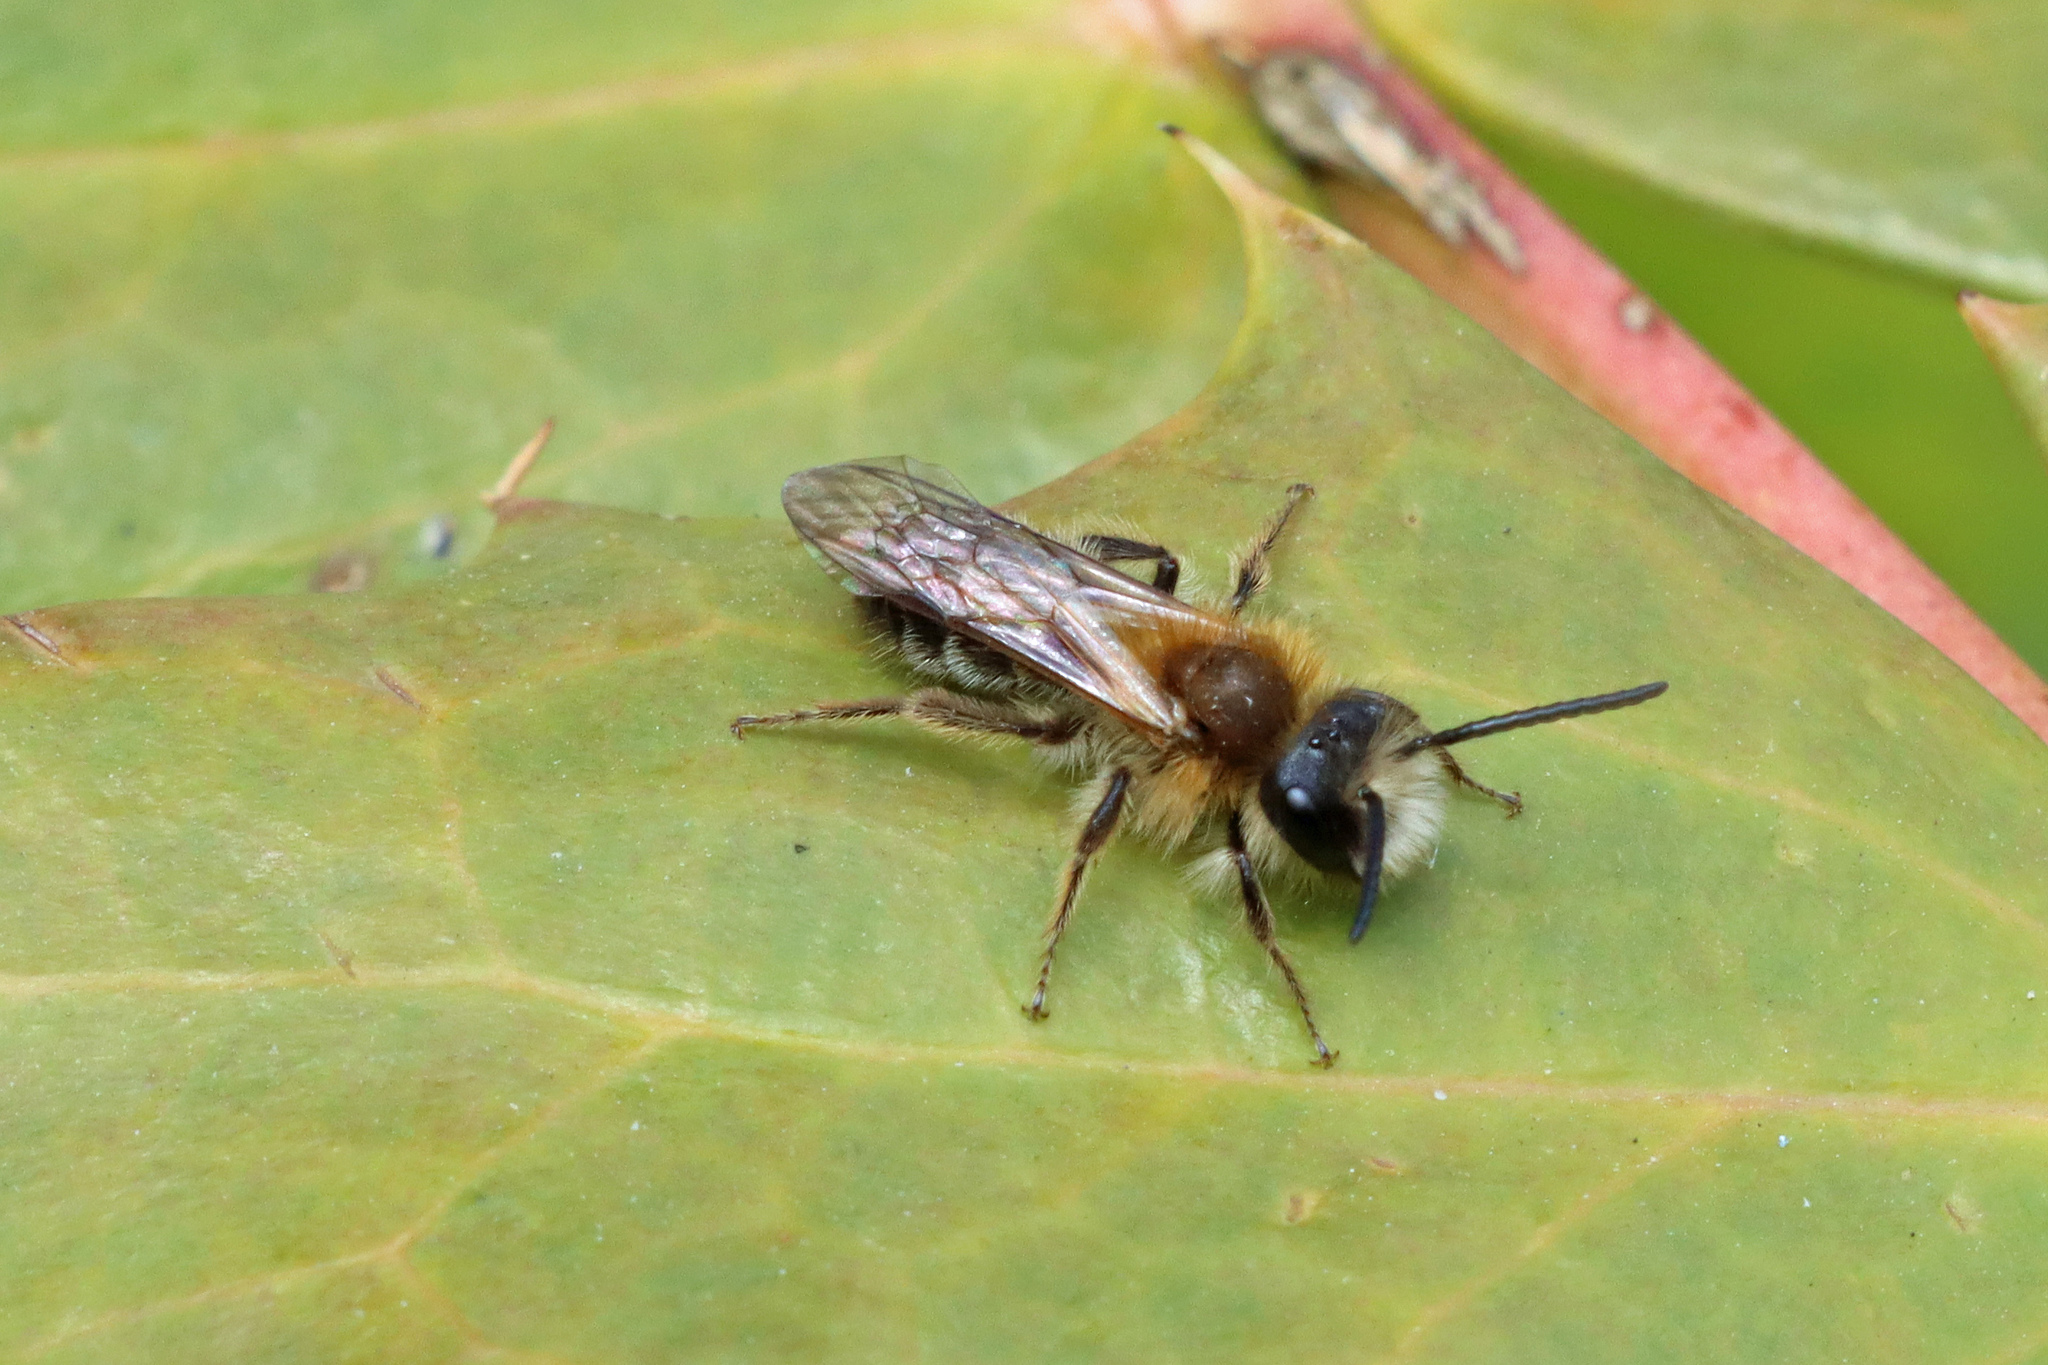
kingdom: Animalia
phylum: Arthropoda
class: Insecta
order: Hymenoptera
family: Andrenidae
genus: Andrena
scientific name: Andrena fulva
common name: Tawny mining bee
